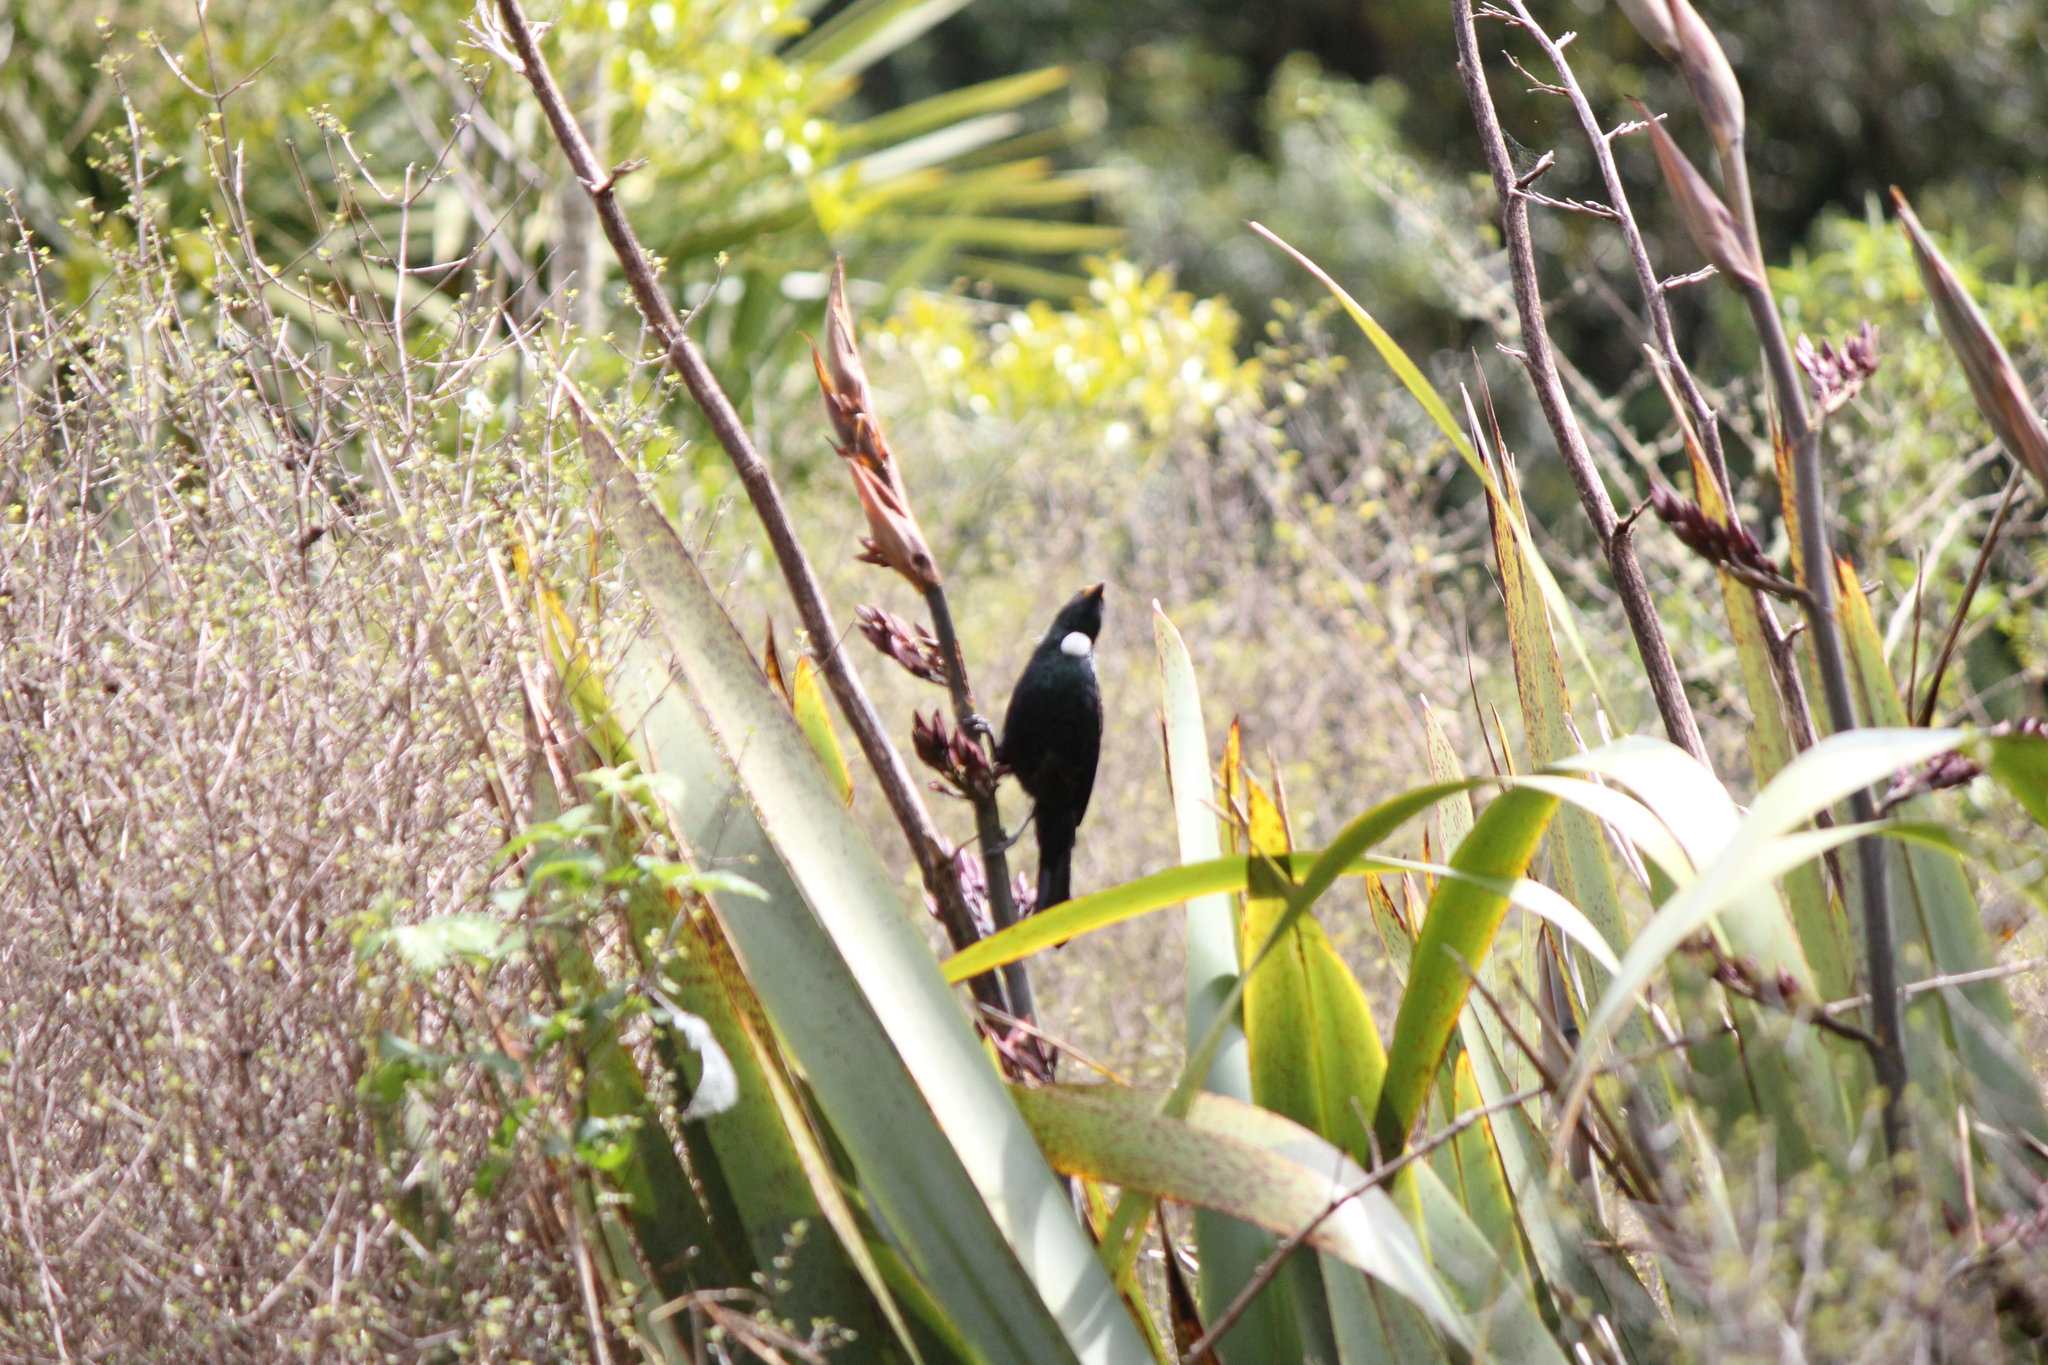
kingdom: Animalia
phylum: Chordata
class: Aves
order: Passeriformes
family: Meliphagidae
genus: Prosthemadera
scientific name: Prosthemadera novaeseelandiae
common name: Tui
